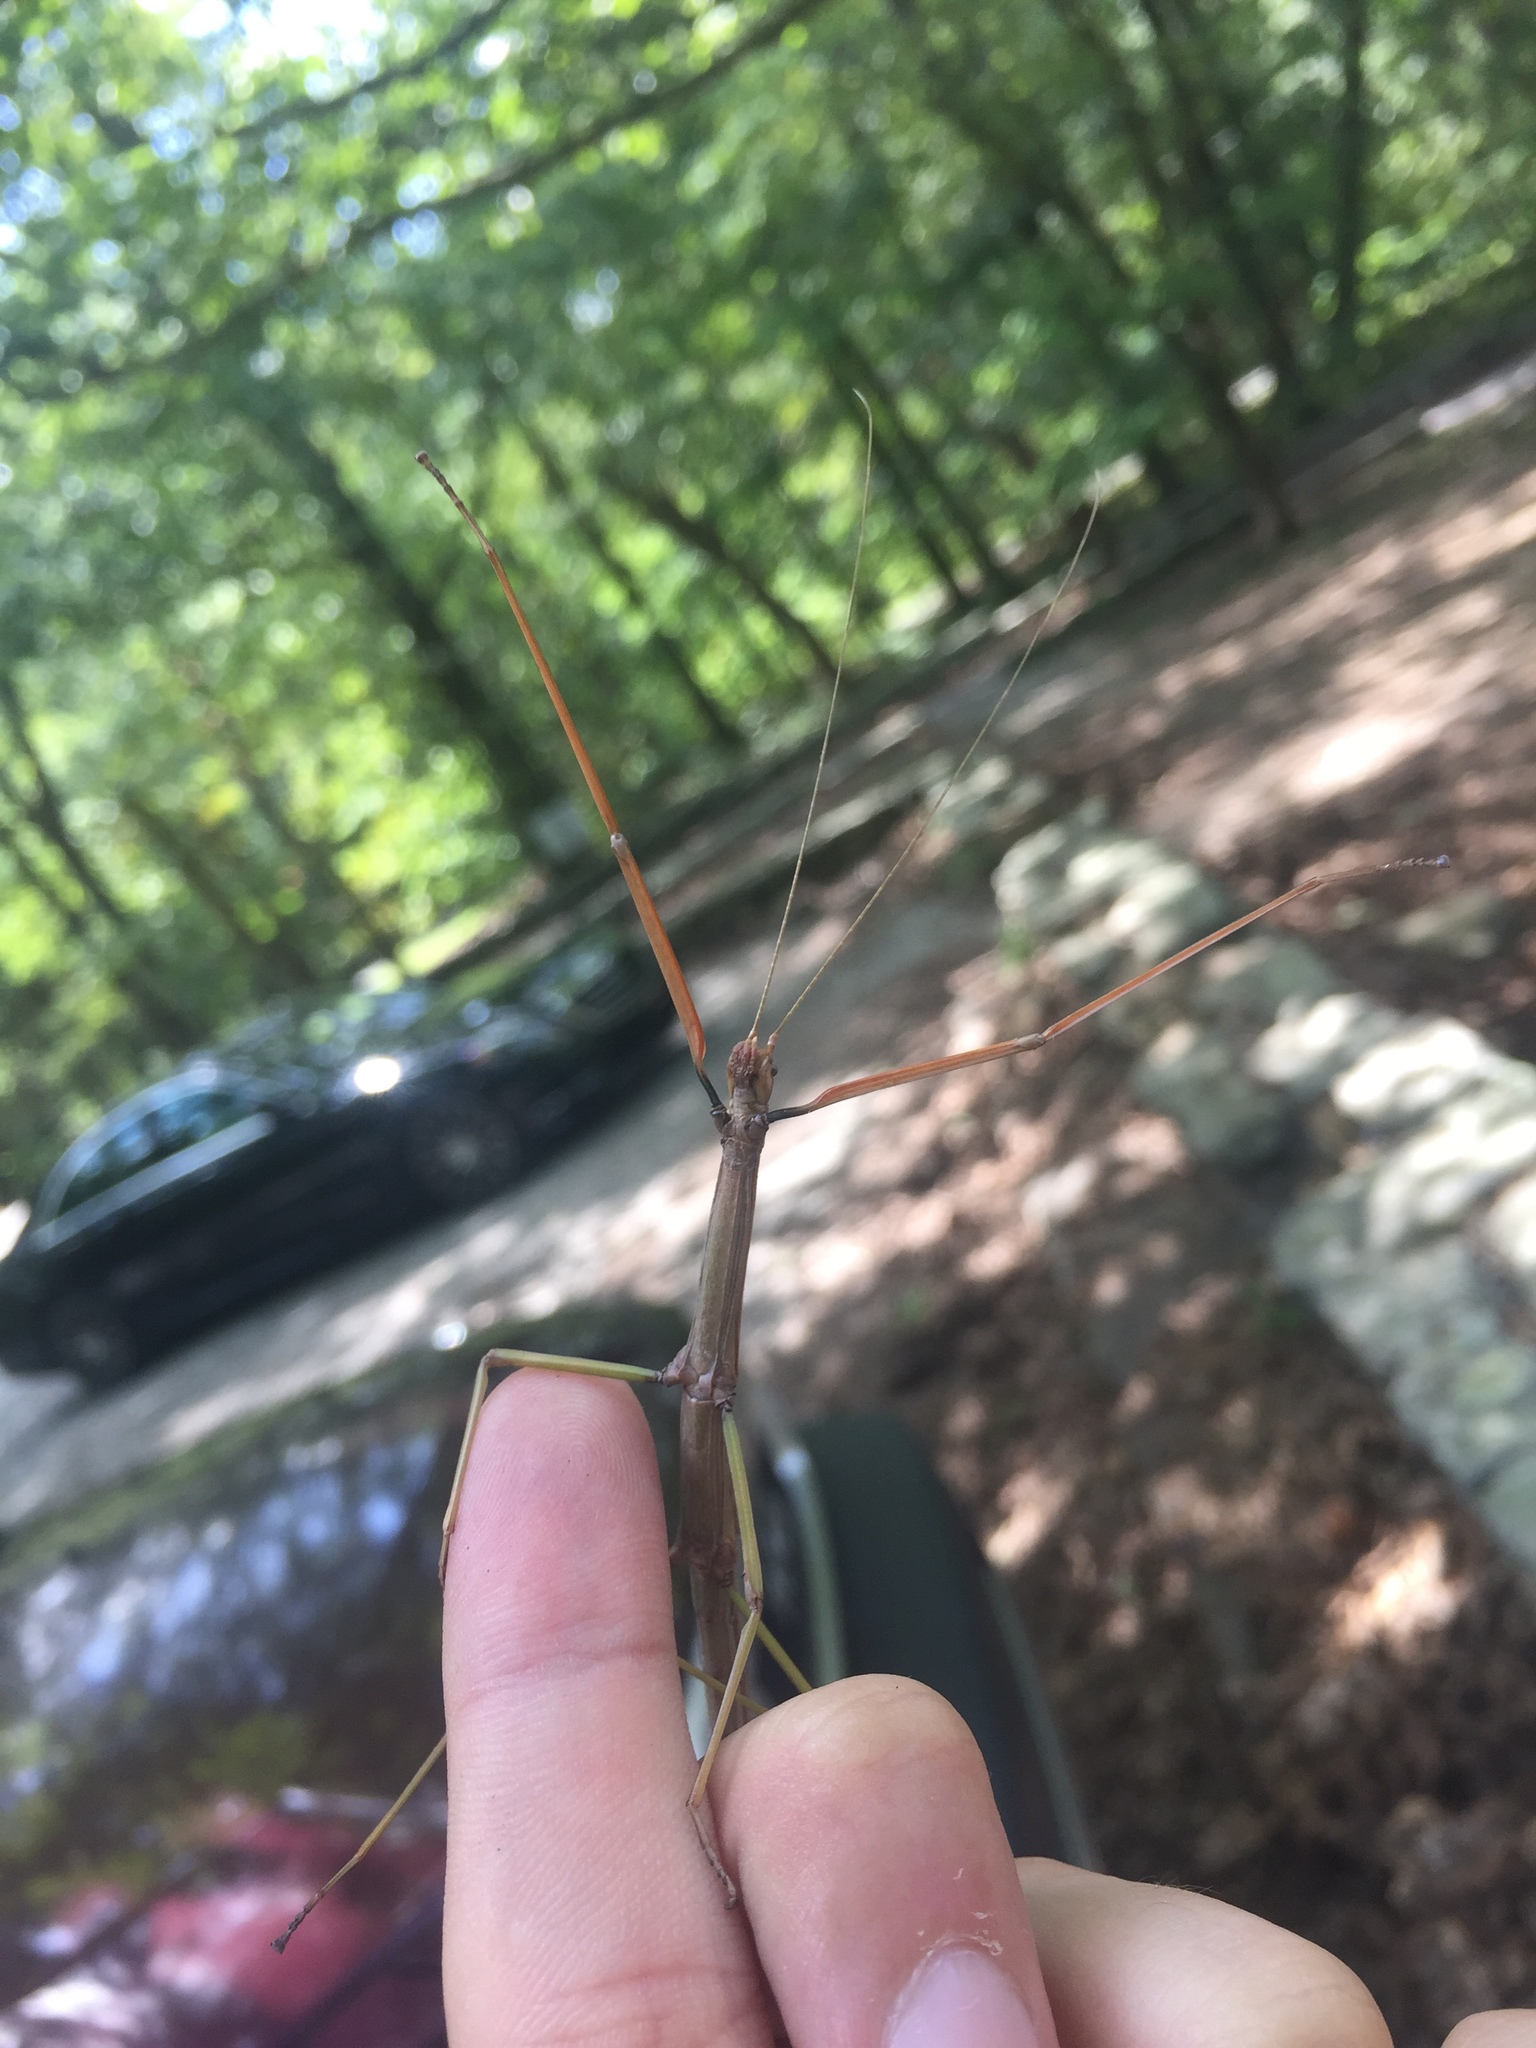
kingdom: Animalia
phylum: Arthropoda
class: Insecta
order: Phasmida
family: Diapheromeridae
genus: Diapheromera
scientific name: Diapheromera femorata
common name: Common american walkingstick
